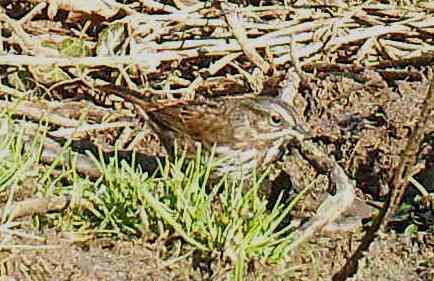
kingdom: Animalia
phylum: Chordata
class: Aves
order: Passeriformes
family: Passerellidae
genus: Melospiza
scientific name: Melospiza melodia
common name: Song sparrow
